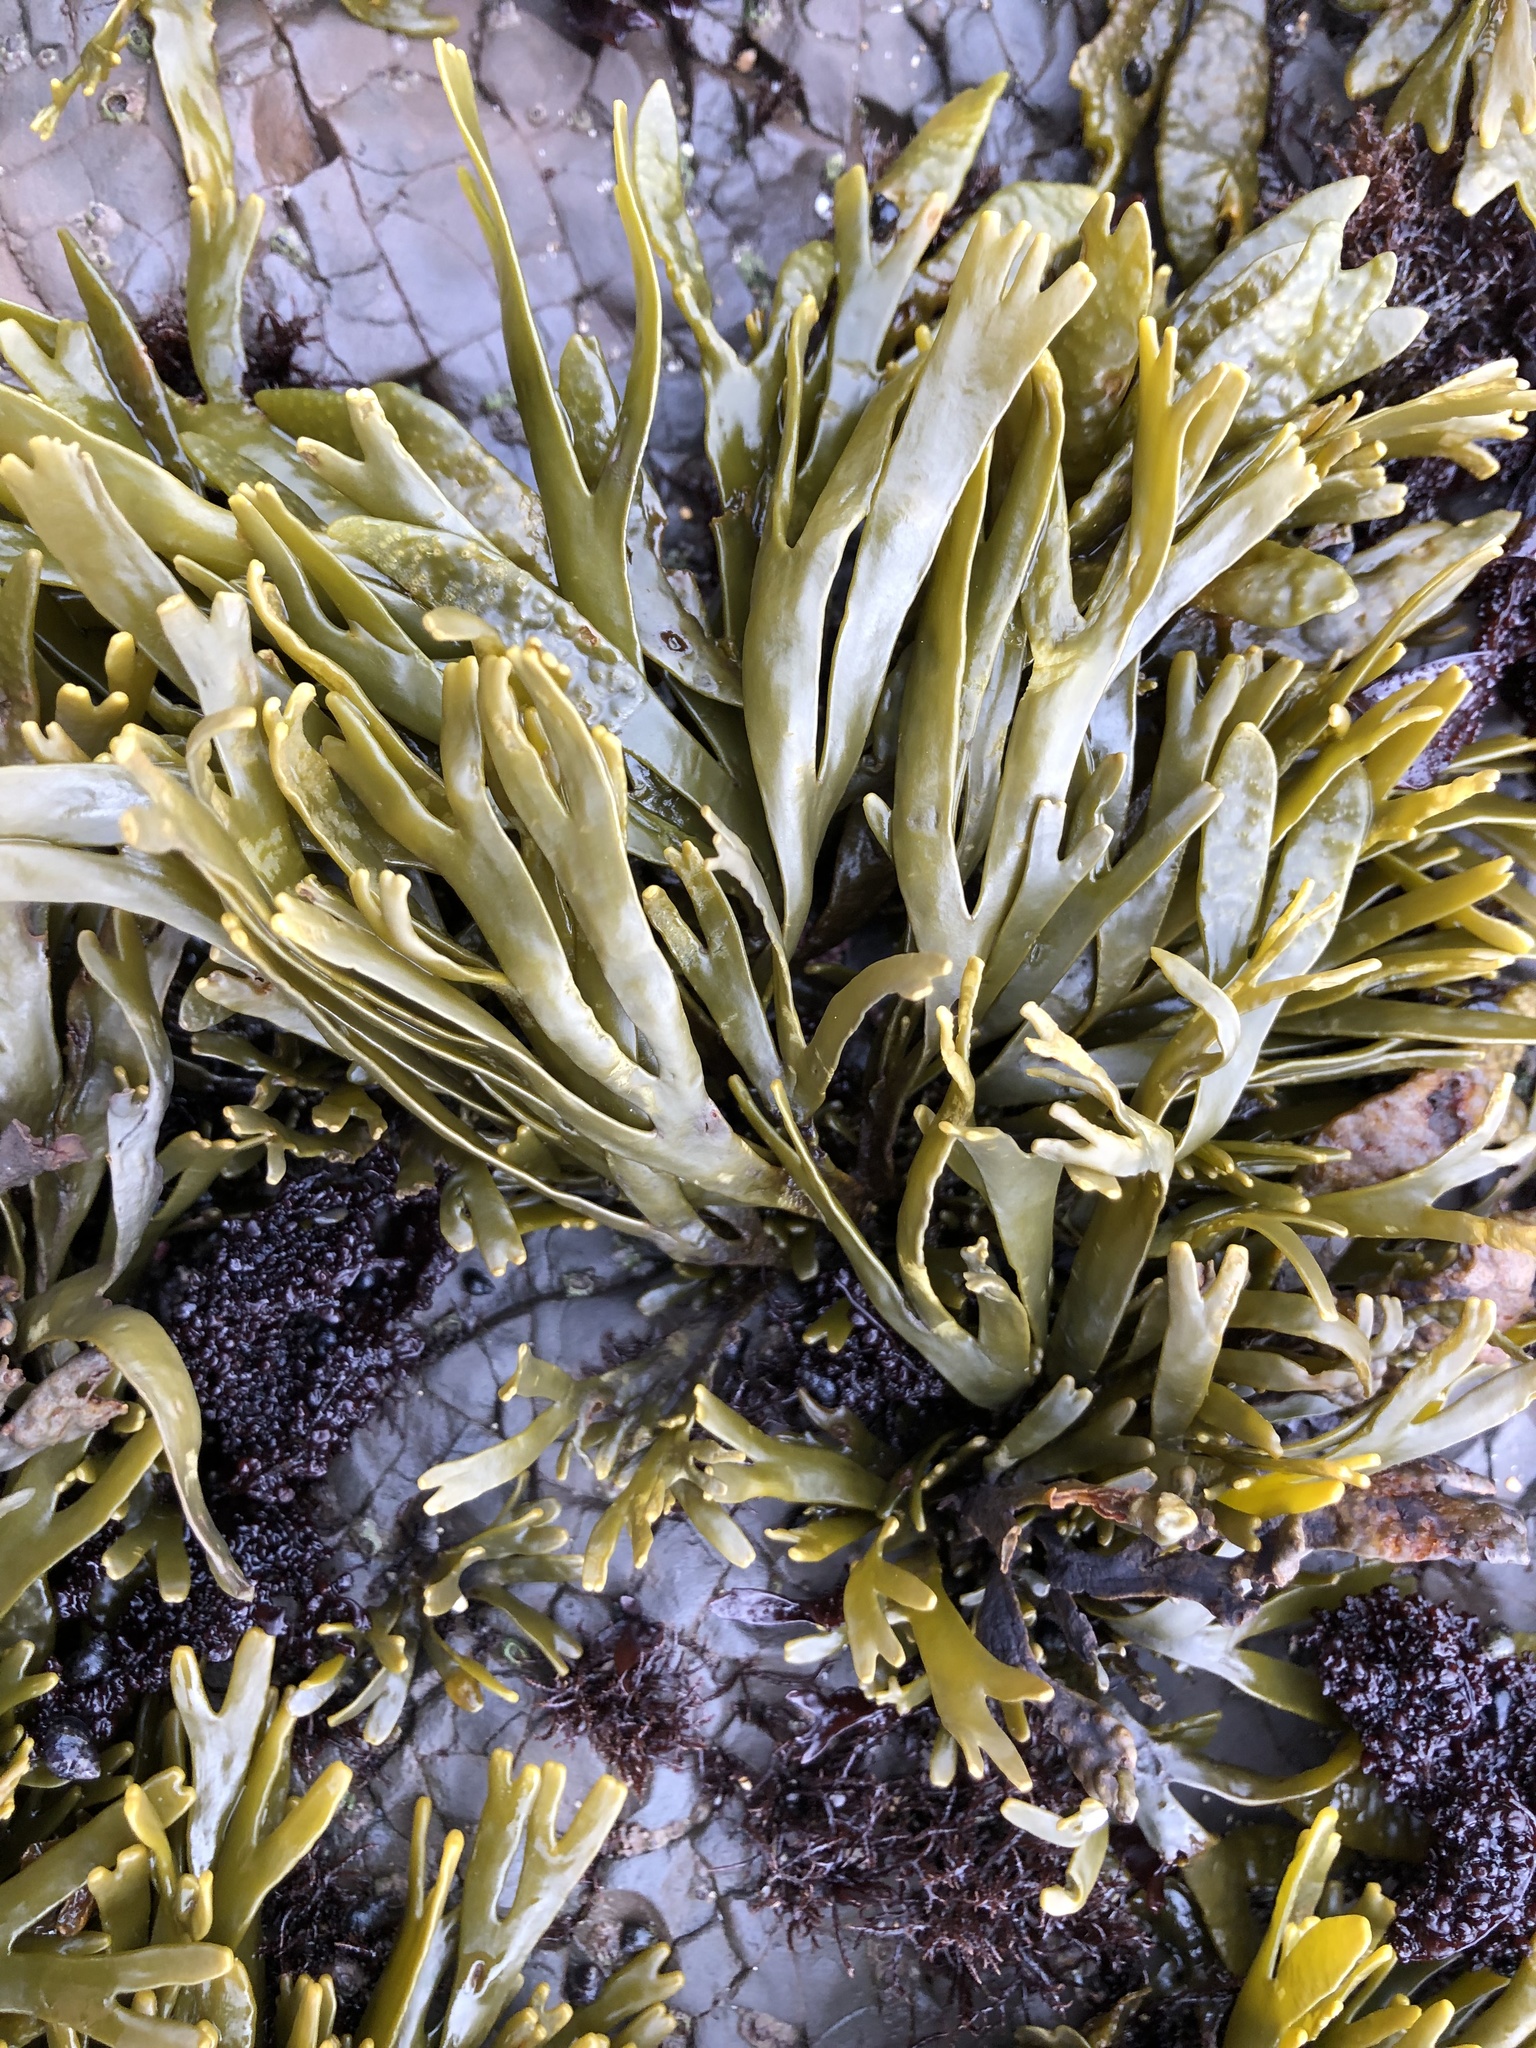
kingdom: Chromista
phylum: Ochrophyta
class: Phaeophyceae
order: Fucales
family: Fucaceae
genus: Pelvetiopsis
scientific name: Pelvetiopsis limitata
